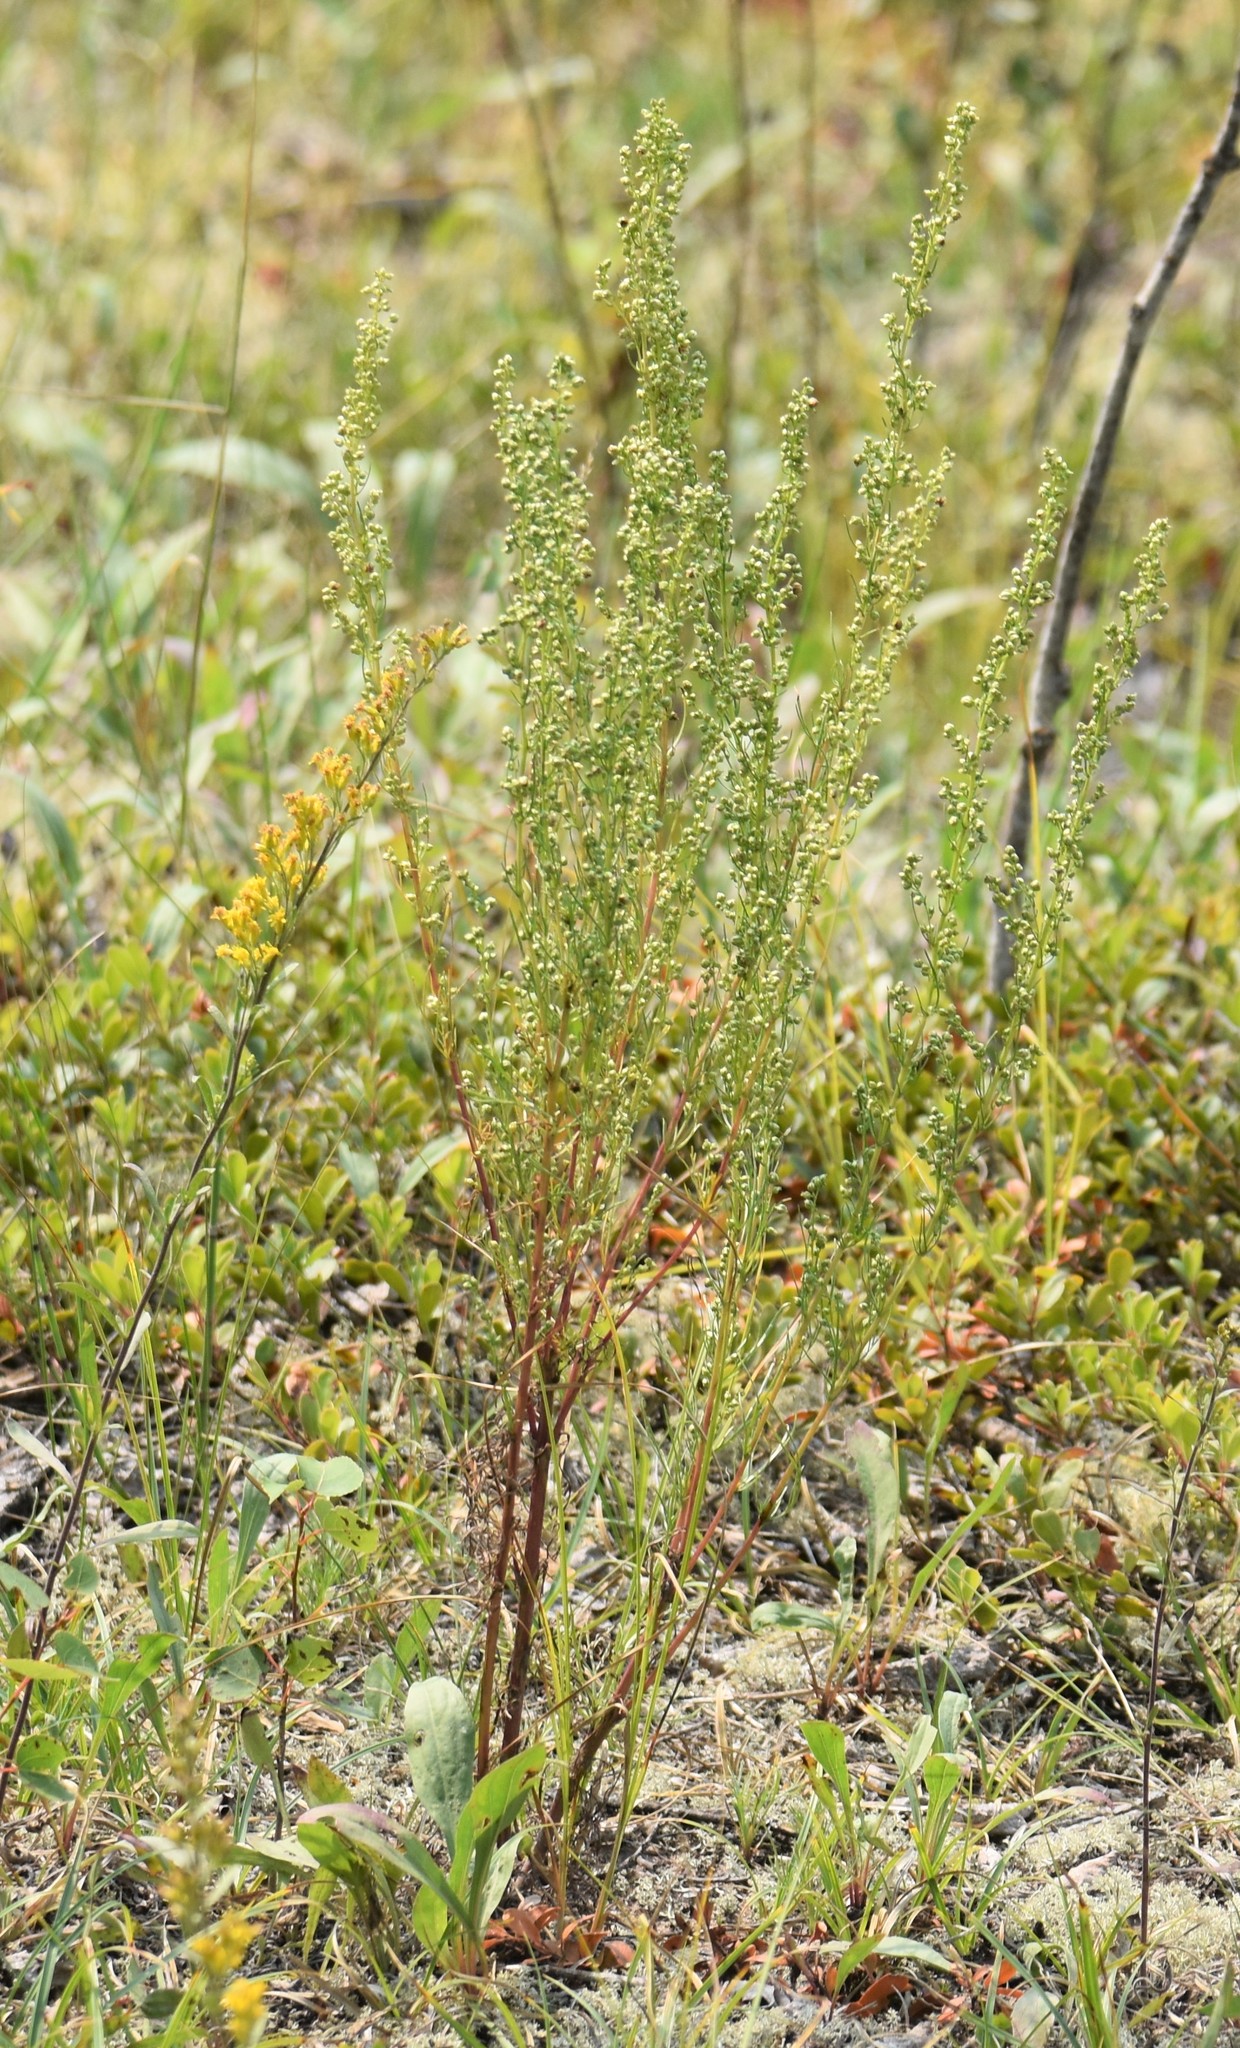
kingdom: Plantae
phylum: Tracheophyta
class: Magnoliopsida
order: Asterales
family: Asteraceae
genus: Artemisia
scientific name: Artemisia campestris
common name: Field wormwood
